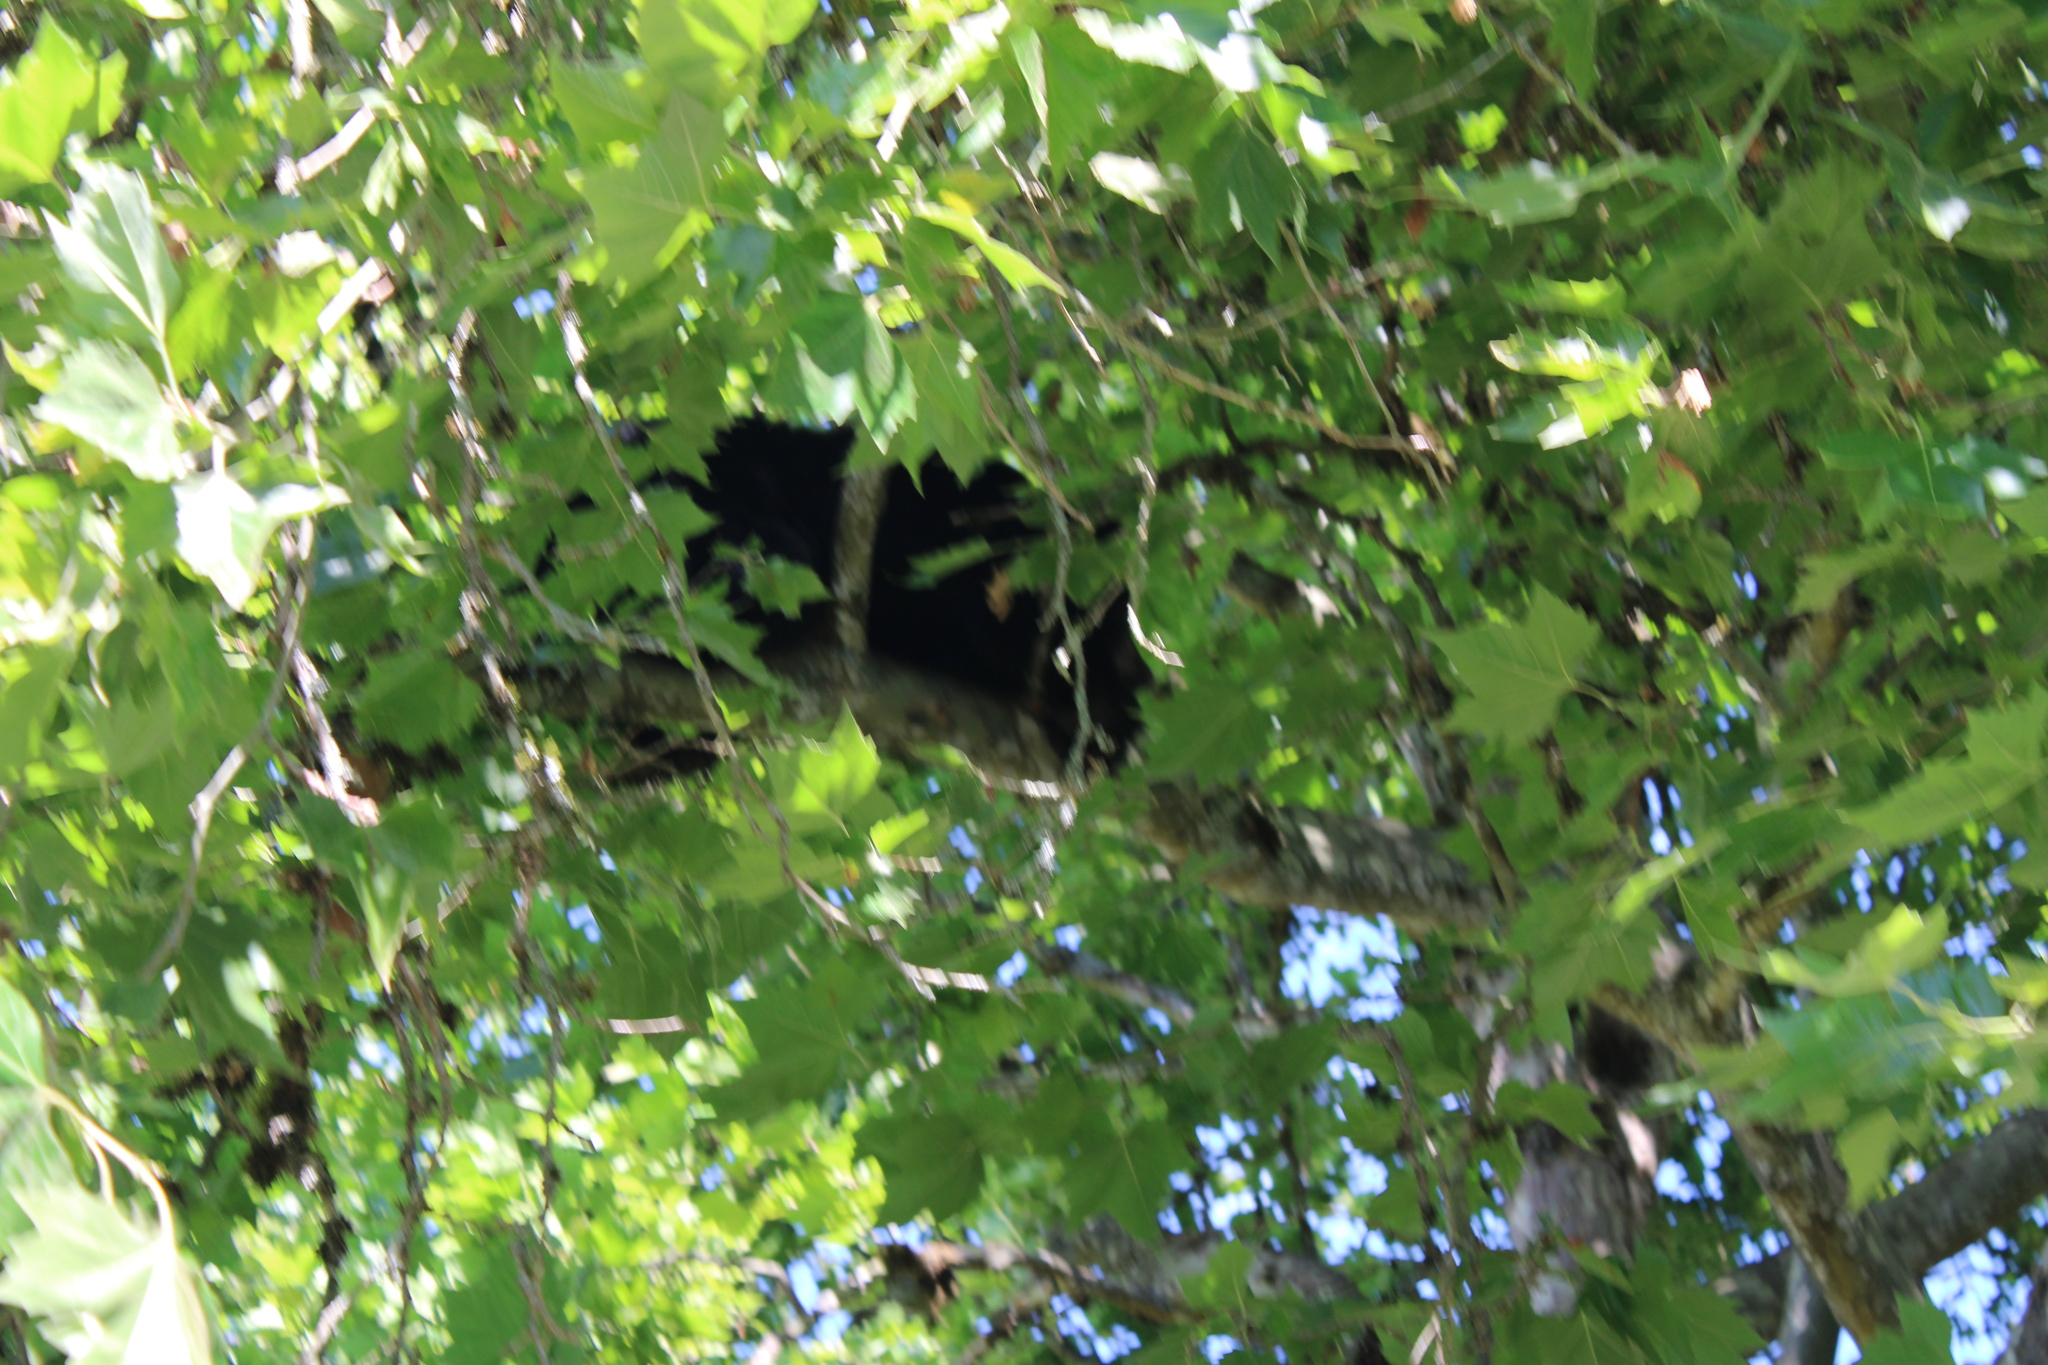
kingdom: Animalia
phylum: Chordata
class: Mammalia
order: Carnivora
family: Ursidae
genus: Ursus
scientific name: Ursus americanus
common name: American black bear
